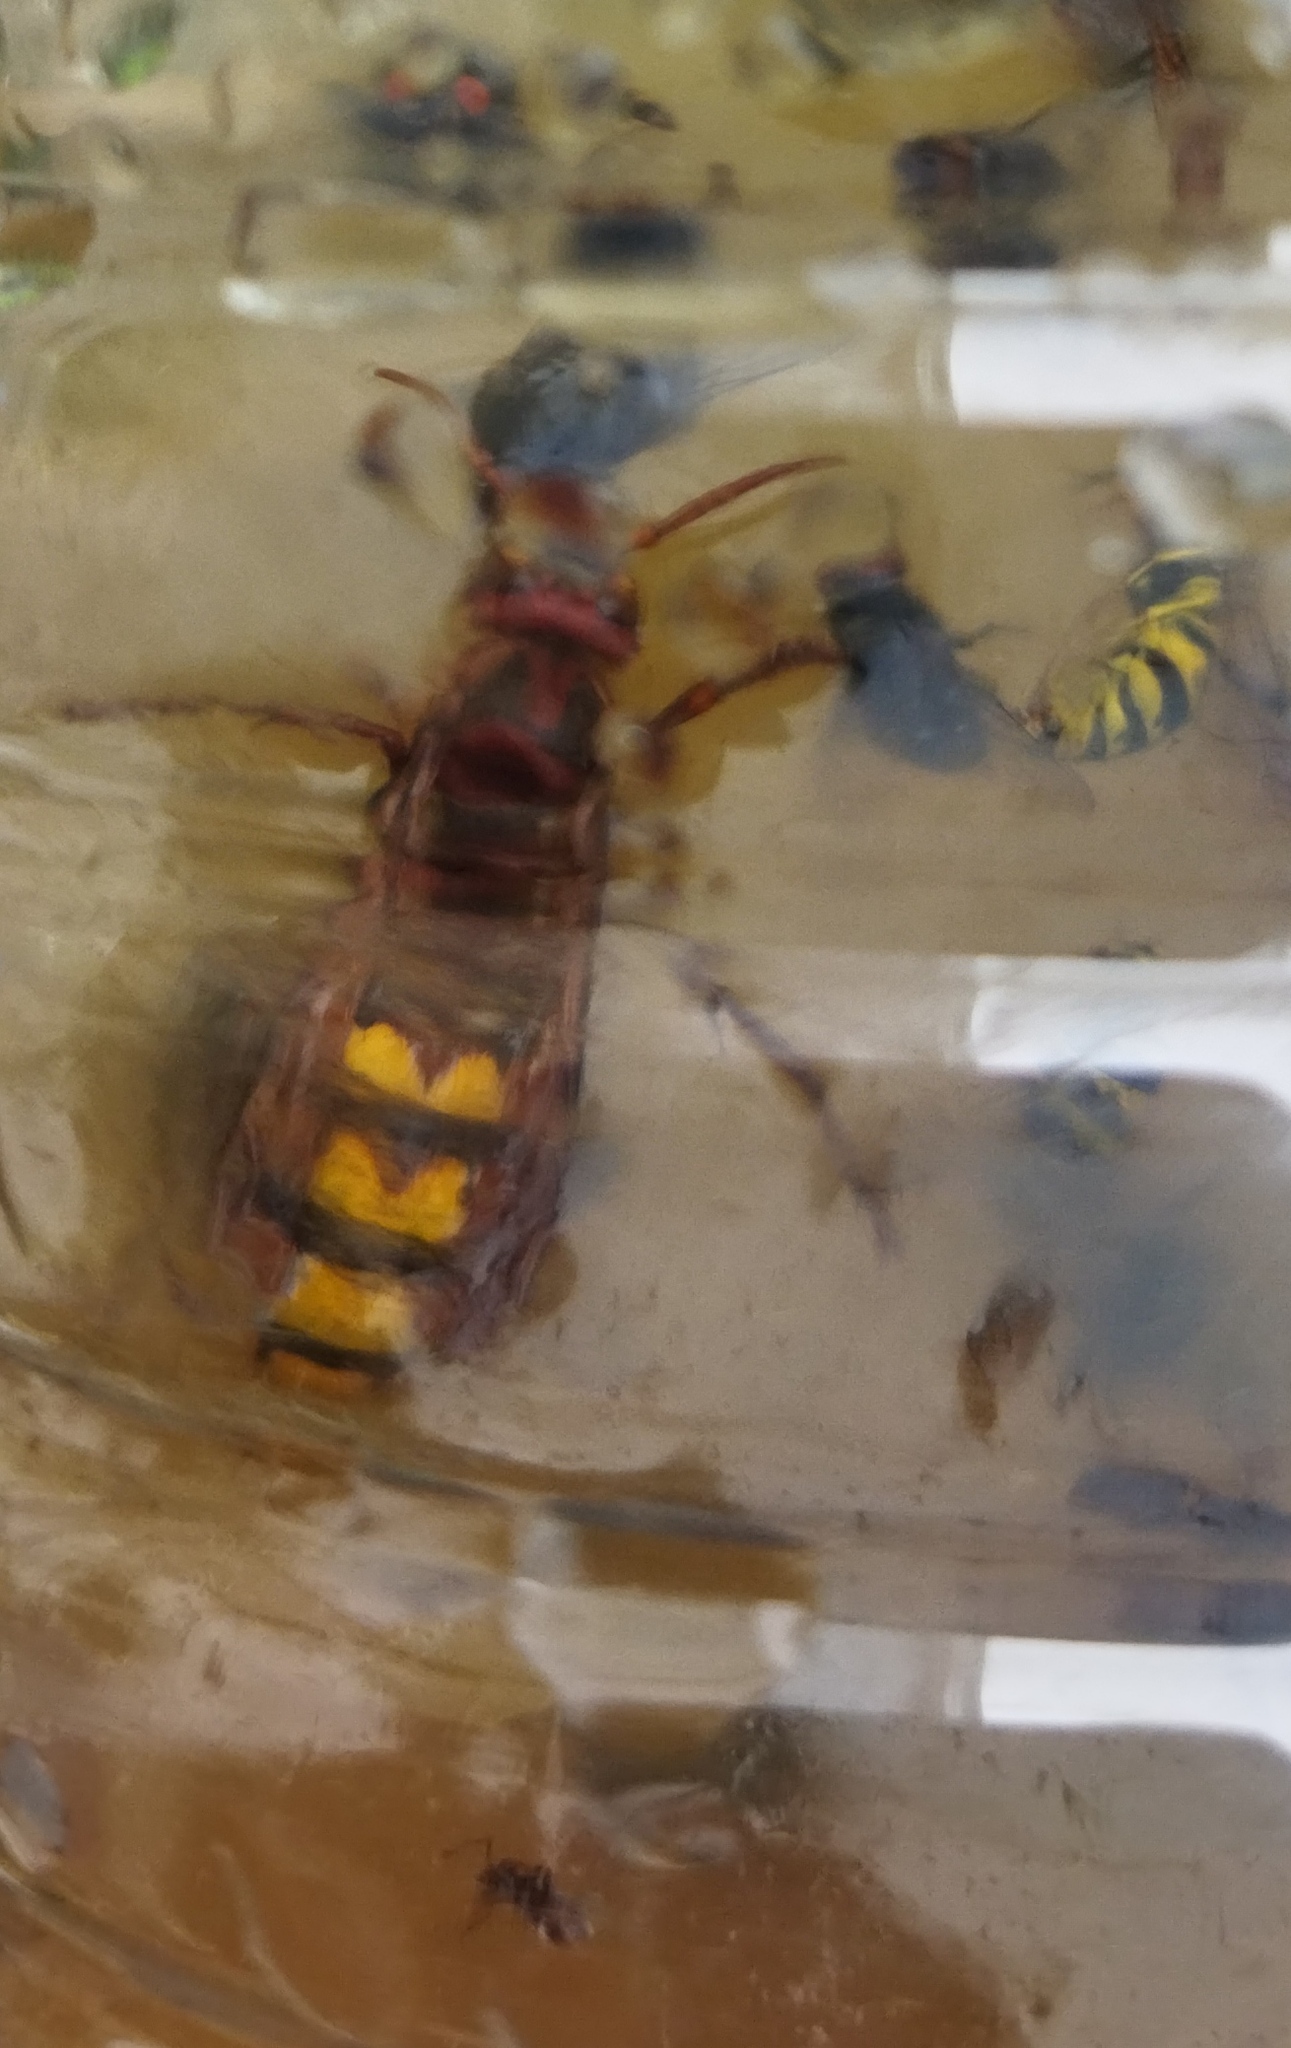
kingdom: Animalia
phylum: Arthropoda
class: Insecta
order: Hymenoptera
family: Vespidae
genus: Vespa
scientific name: Vespa crabro
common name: Hornet
